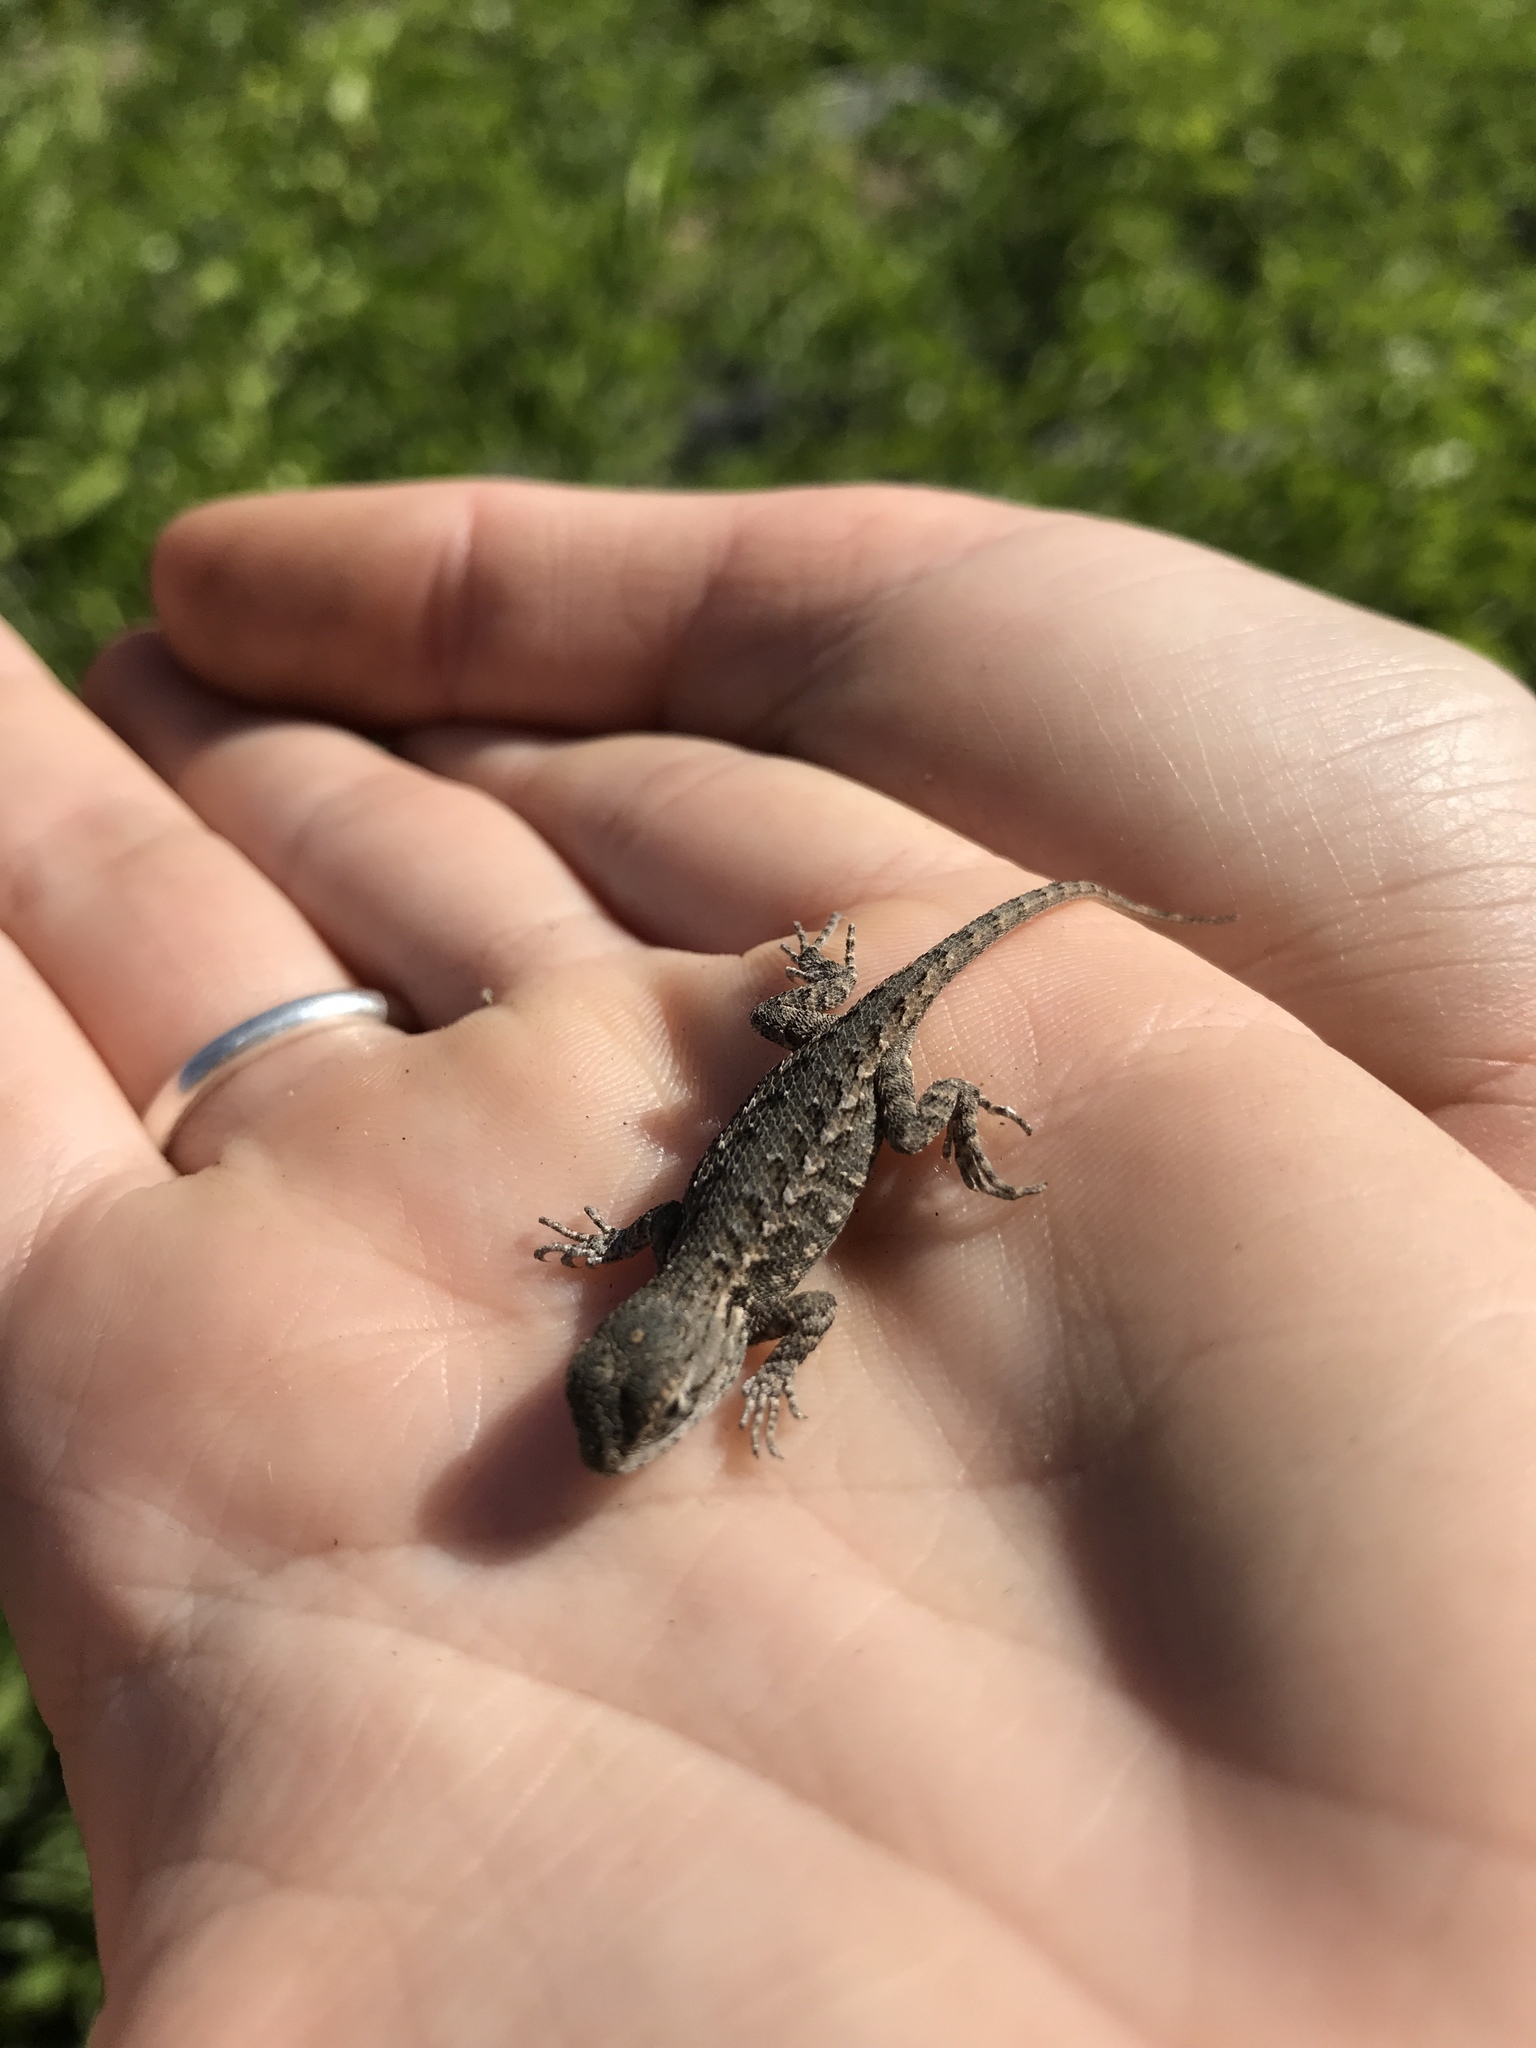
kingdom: Animalia
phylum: Chordata
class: Squamata
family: Phrynosomatidae
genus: Sceloporus
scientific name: Sceloporus occidentalis
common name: Western fence lizard
